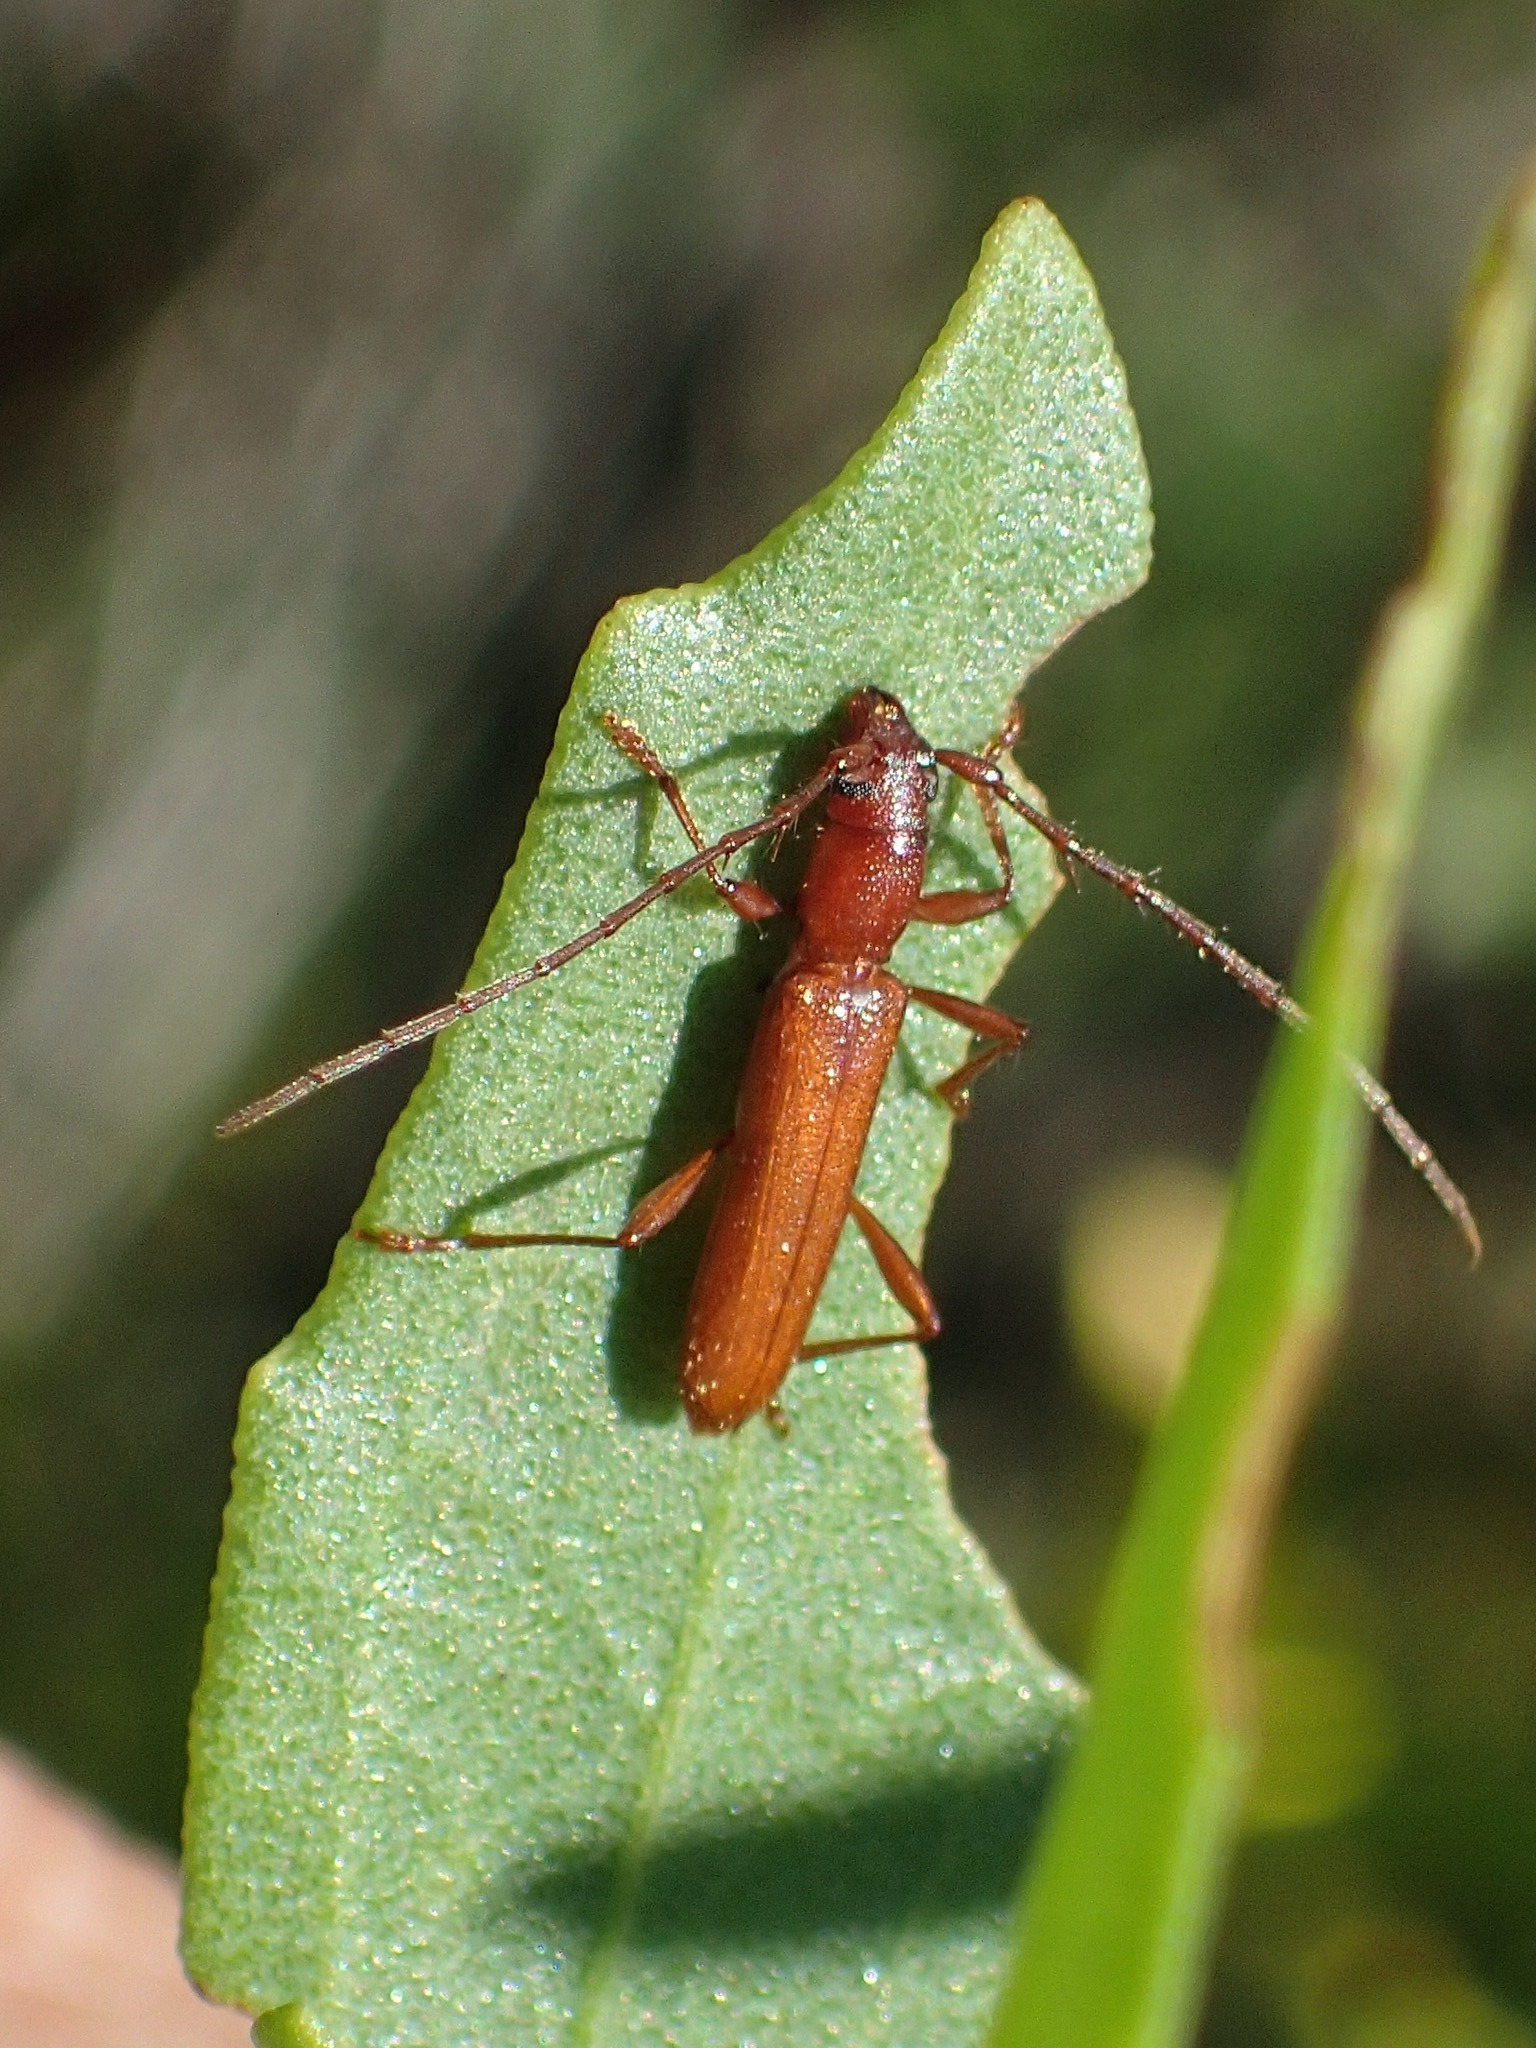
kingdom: Animalia
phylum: Arthropoda
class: Insecta
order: Coleoptera
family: Cerambycidae
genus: Aneflomorpha
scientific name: Aneflomorpha delongi
